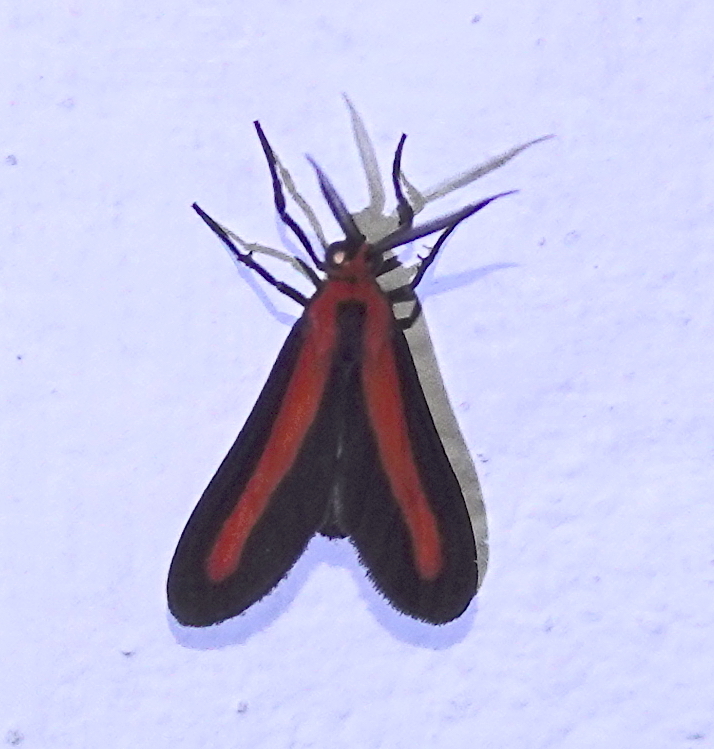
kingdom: Animalia
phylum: Arthropoda
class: Insecta
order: Lepidoptera
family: Erebidae
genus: Tipulodes
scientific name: Tipulodes rubriceps
